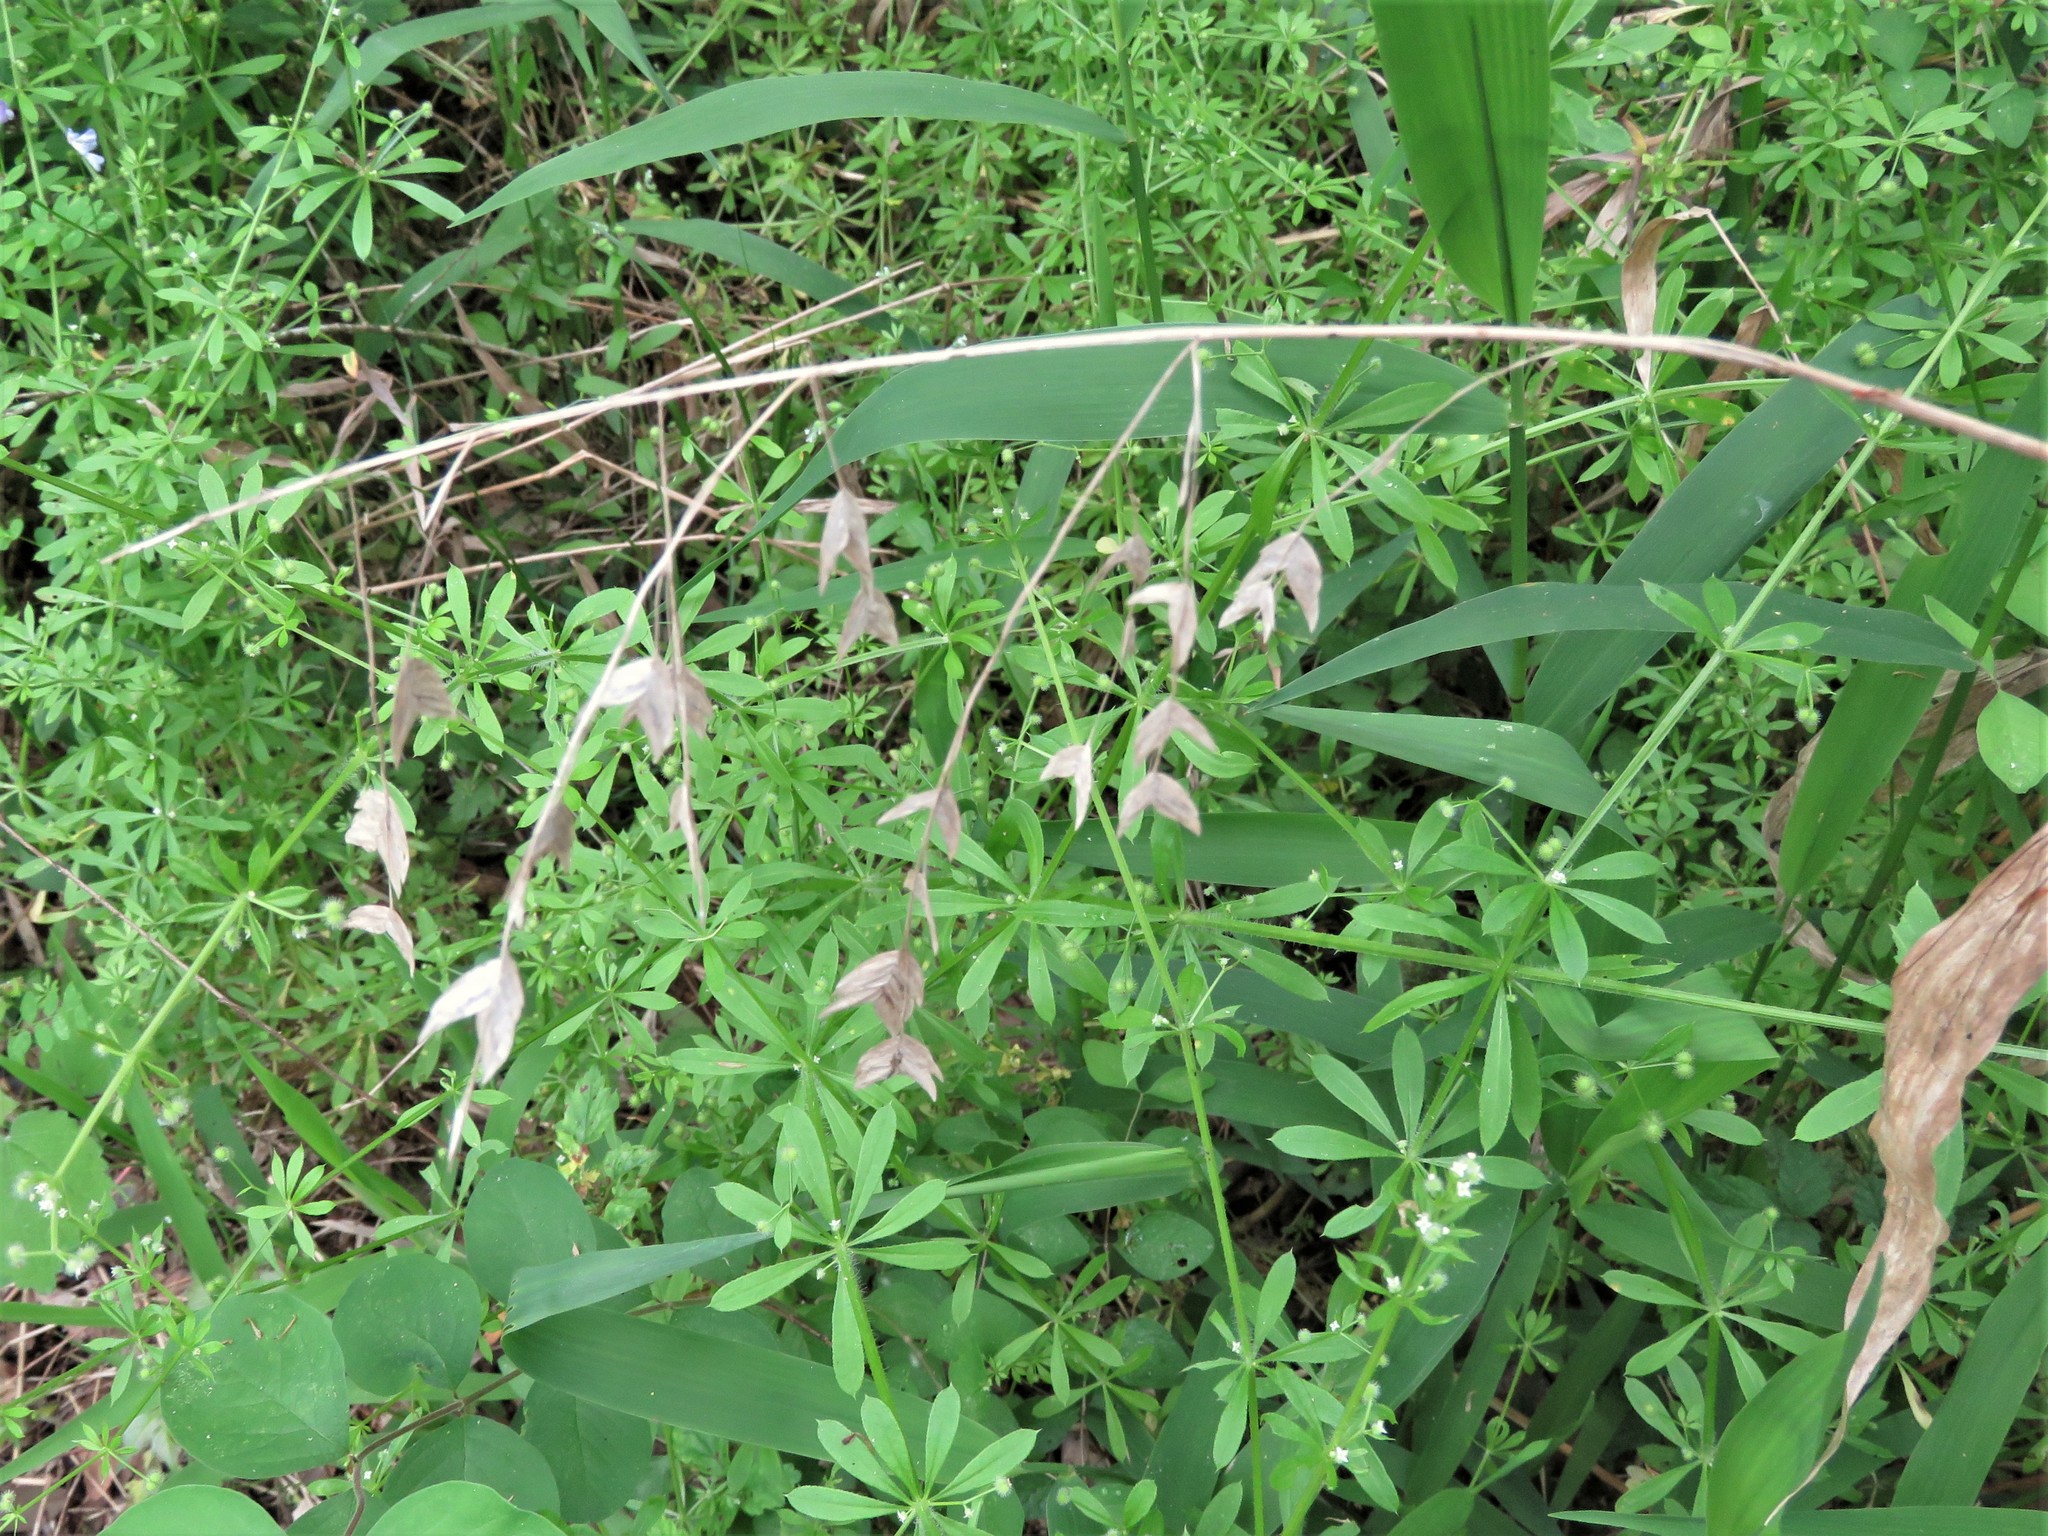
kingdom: Plantae
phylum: Tracheophyta
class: Liliopsida
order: Poales
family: Poaceae
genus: Chasmanthium
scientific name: Chasmanthium latifolium
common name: Broad-leaved chasmanthium
